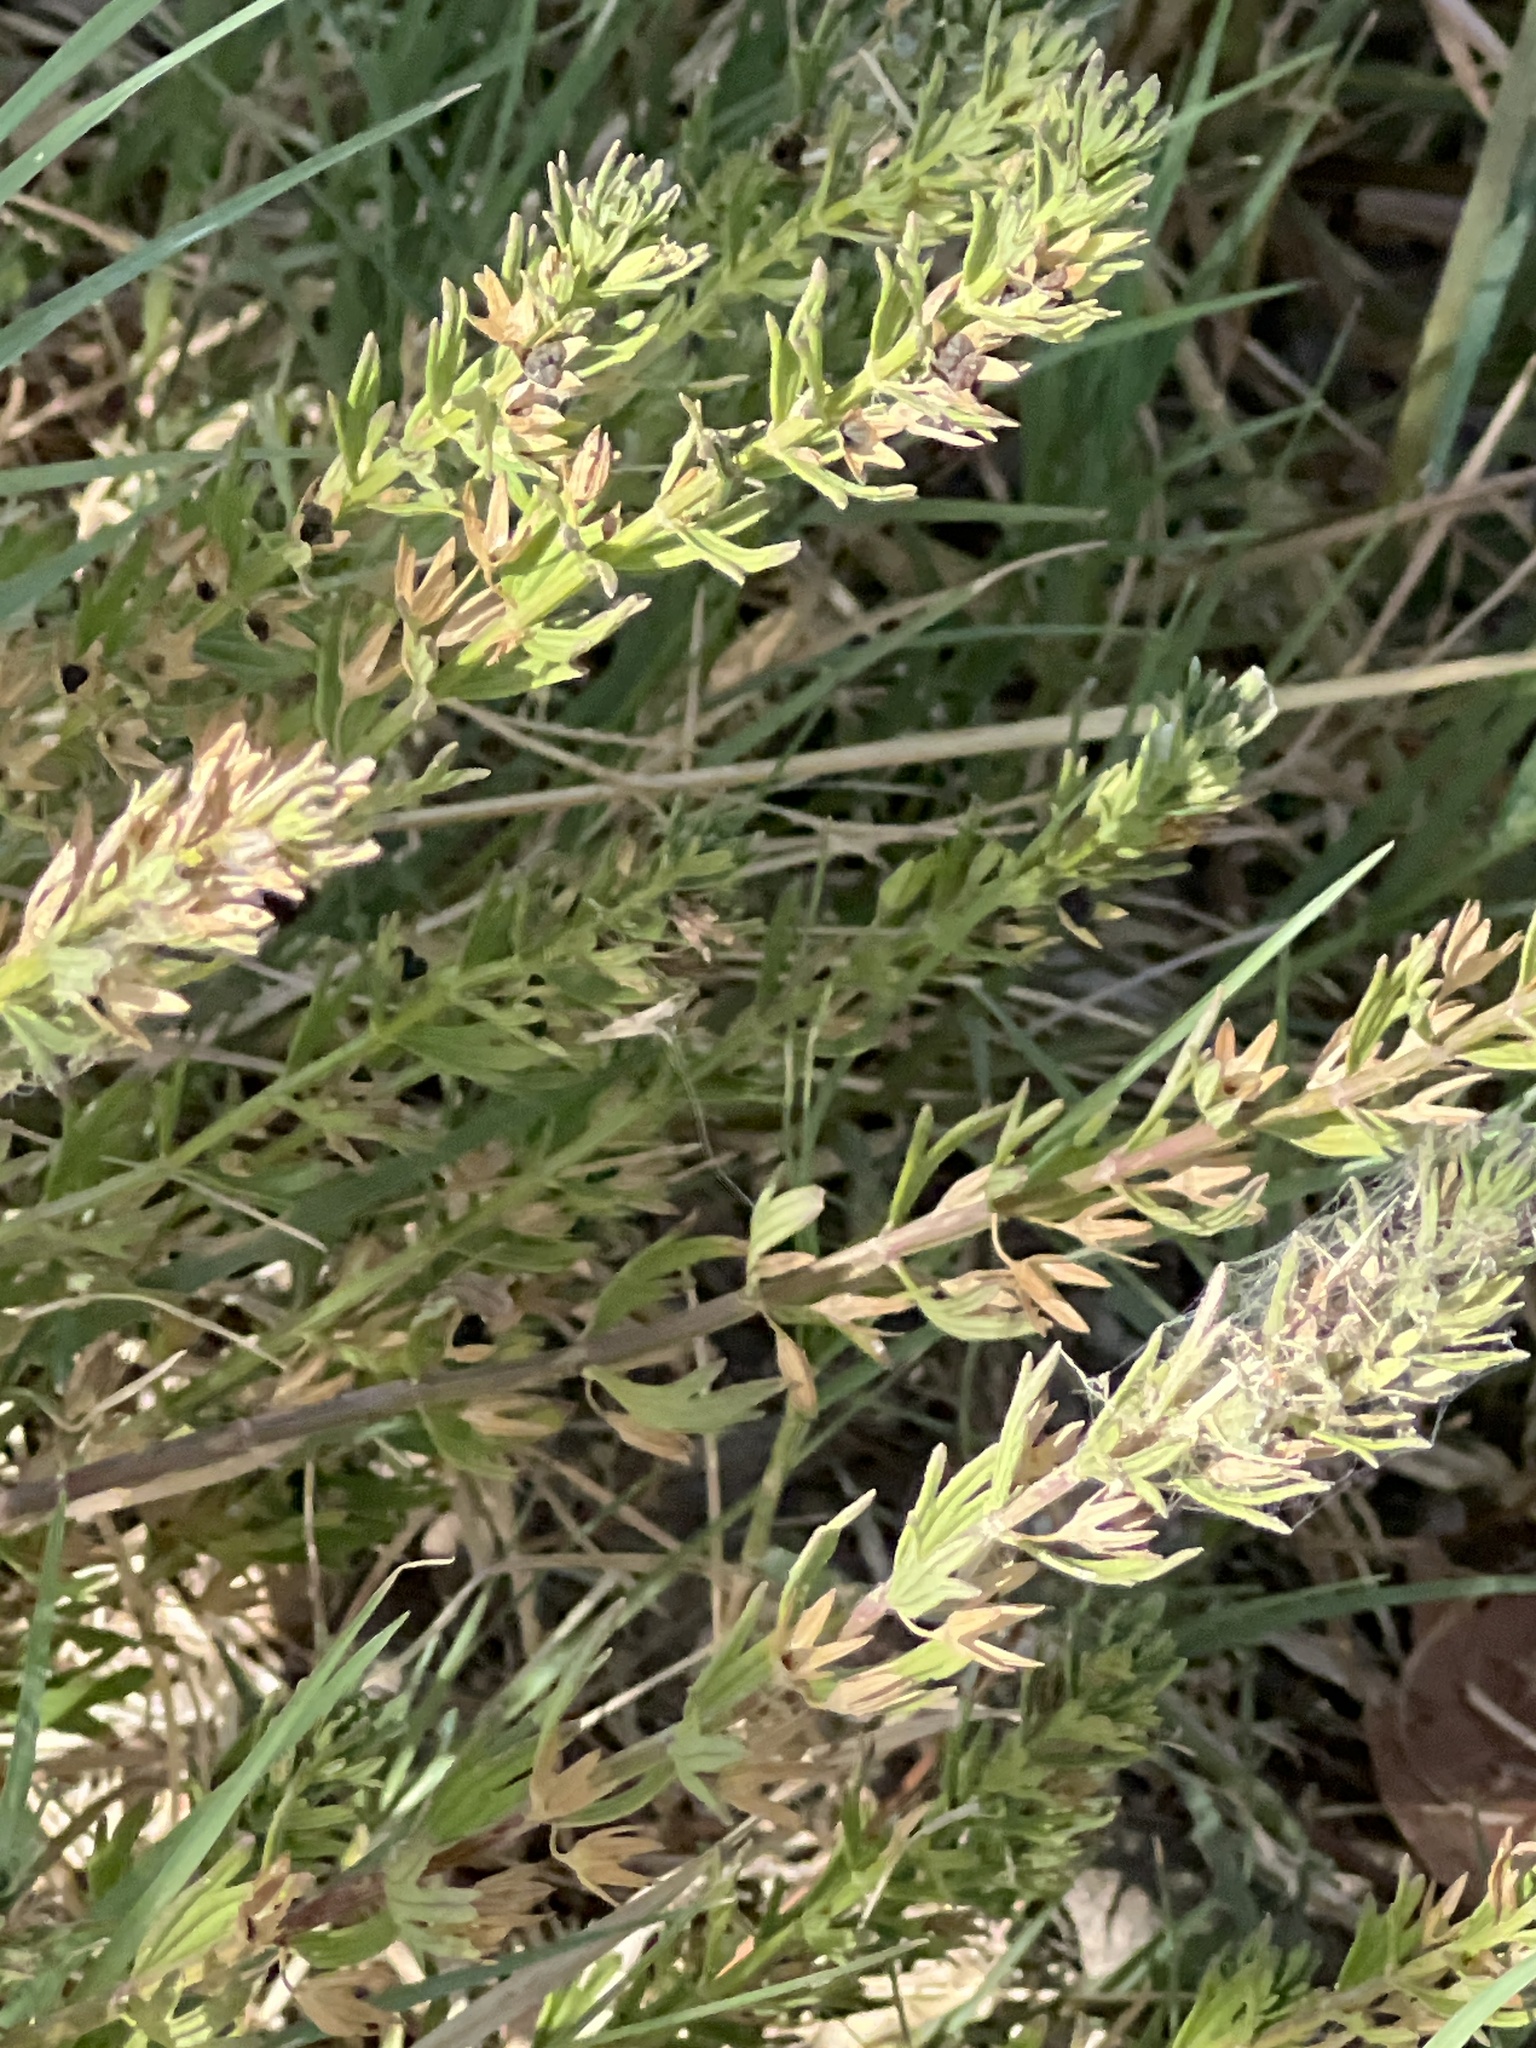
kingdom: Plantae
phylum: Tracheophyta
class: Magnoliopsida
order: Lamiales
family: Lamiaceae
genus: Teucrium
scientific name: Teucrium cubense
